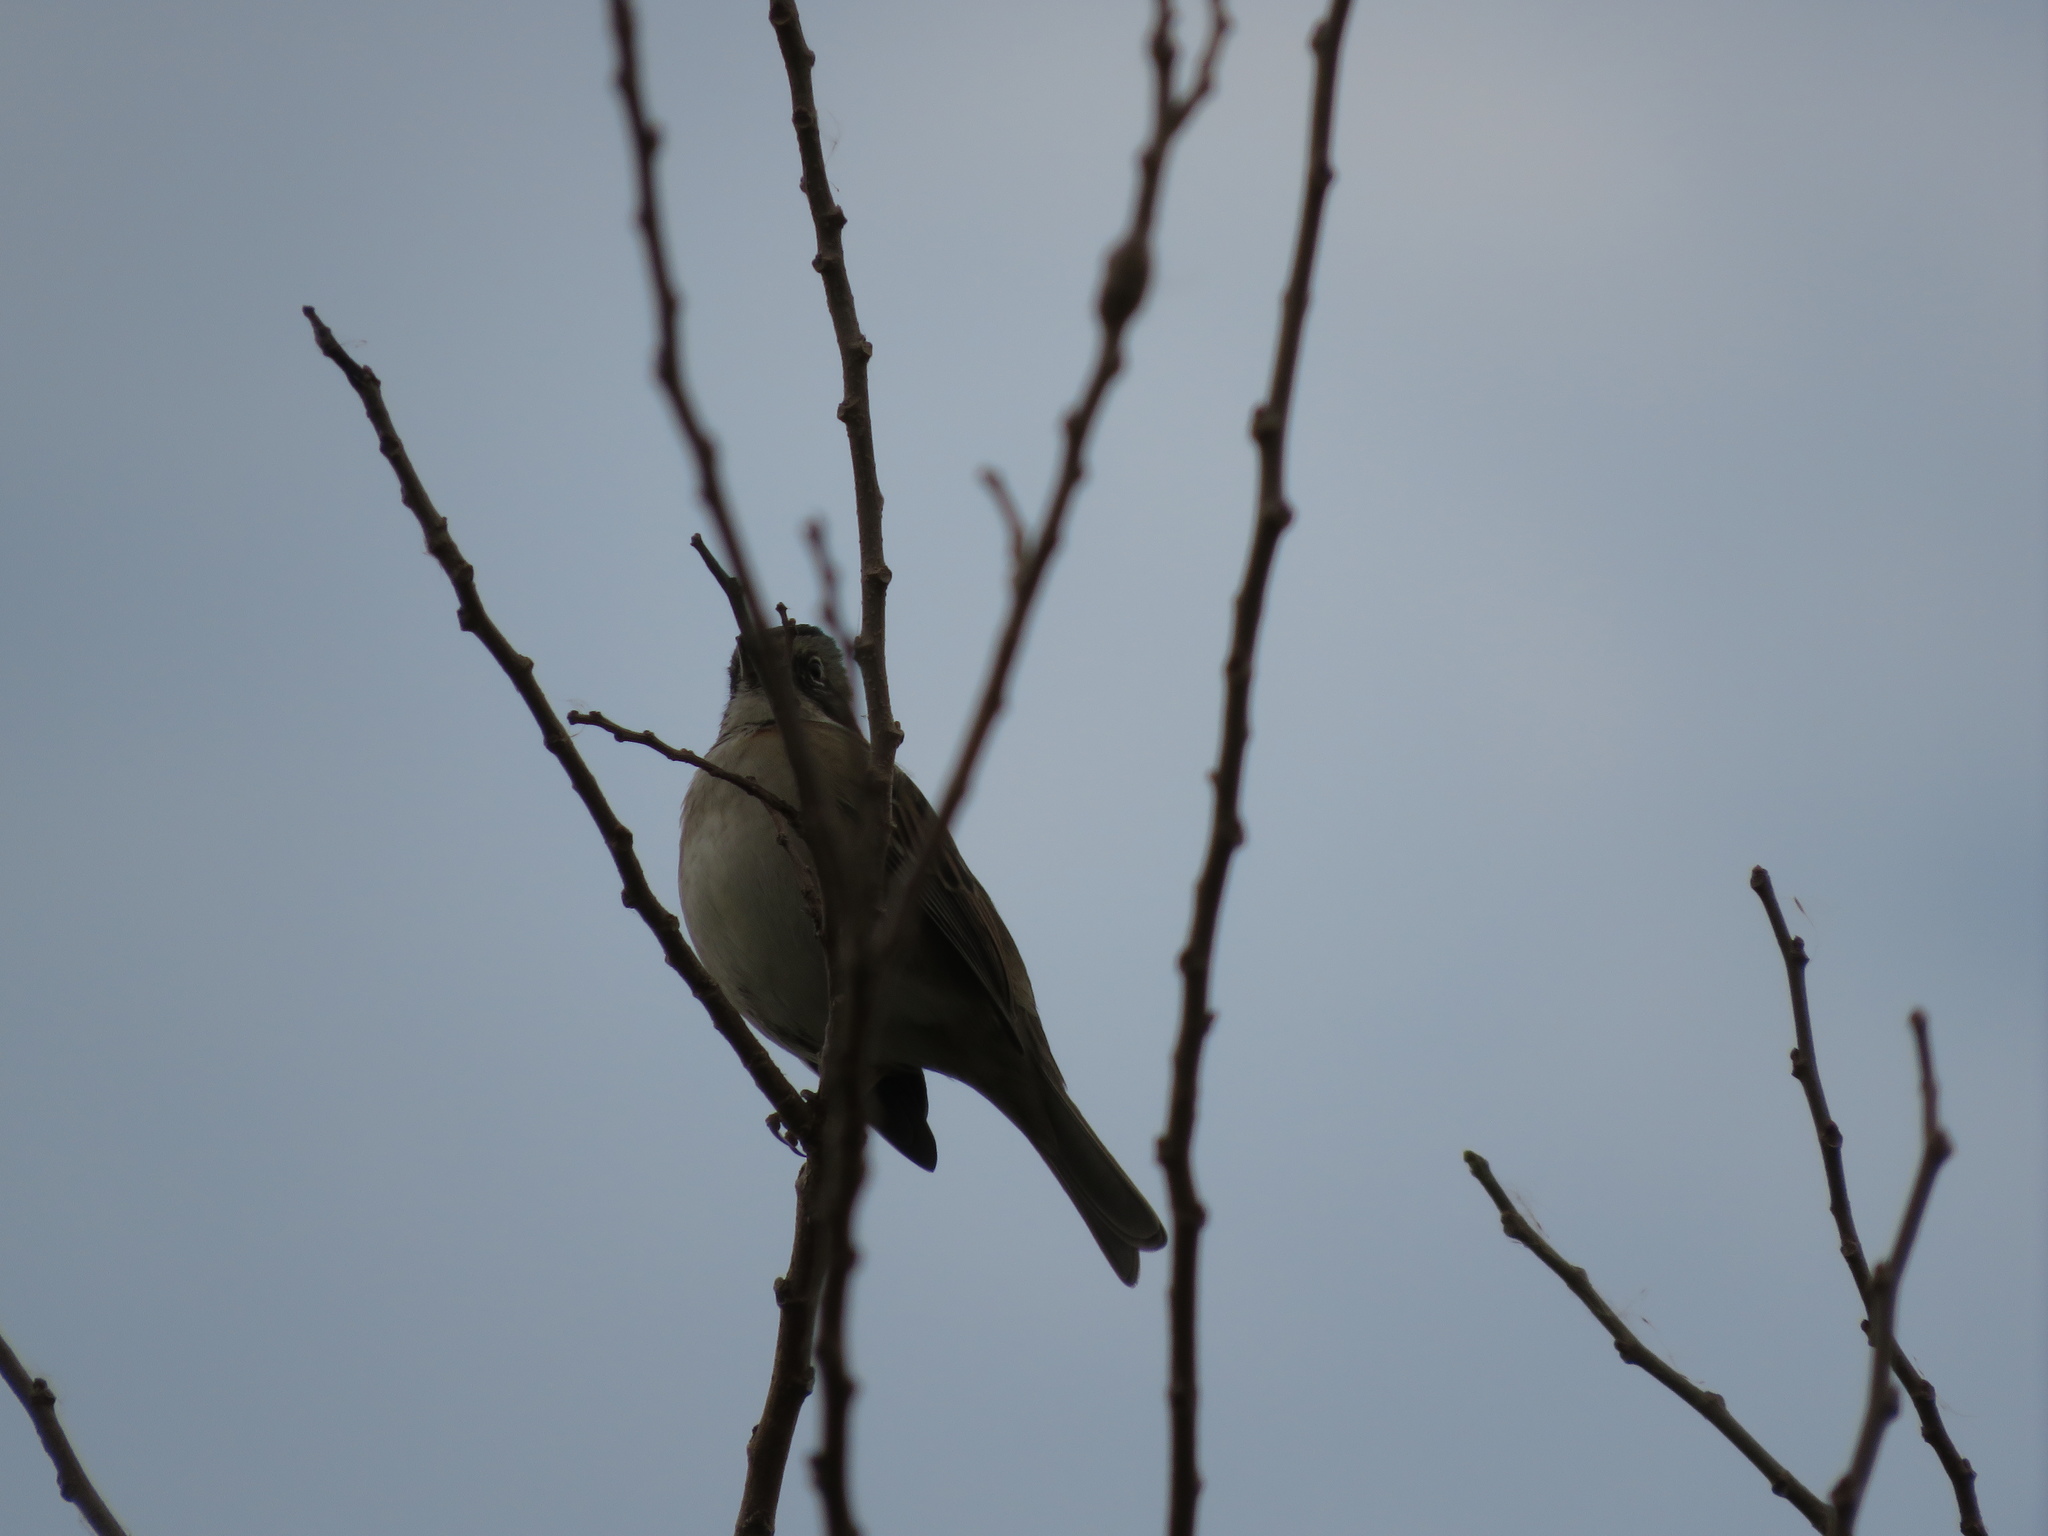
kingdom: Animalia
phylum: Chordata
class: Aves
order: Passeriformes
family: Passerellidae
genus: Zonotrichia
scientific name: Zonotrichia capensis
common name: Rufous-collared sparrow
